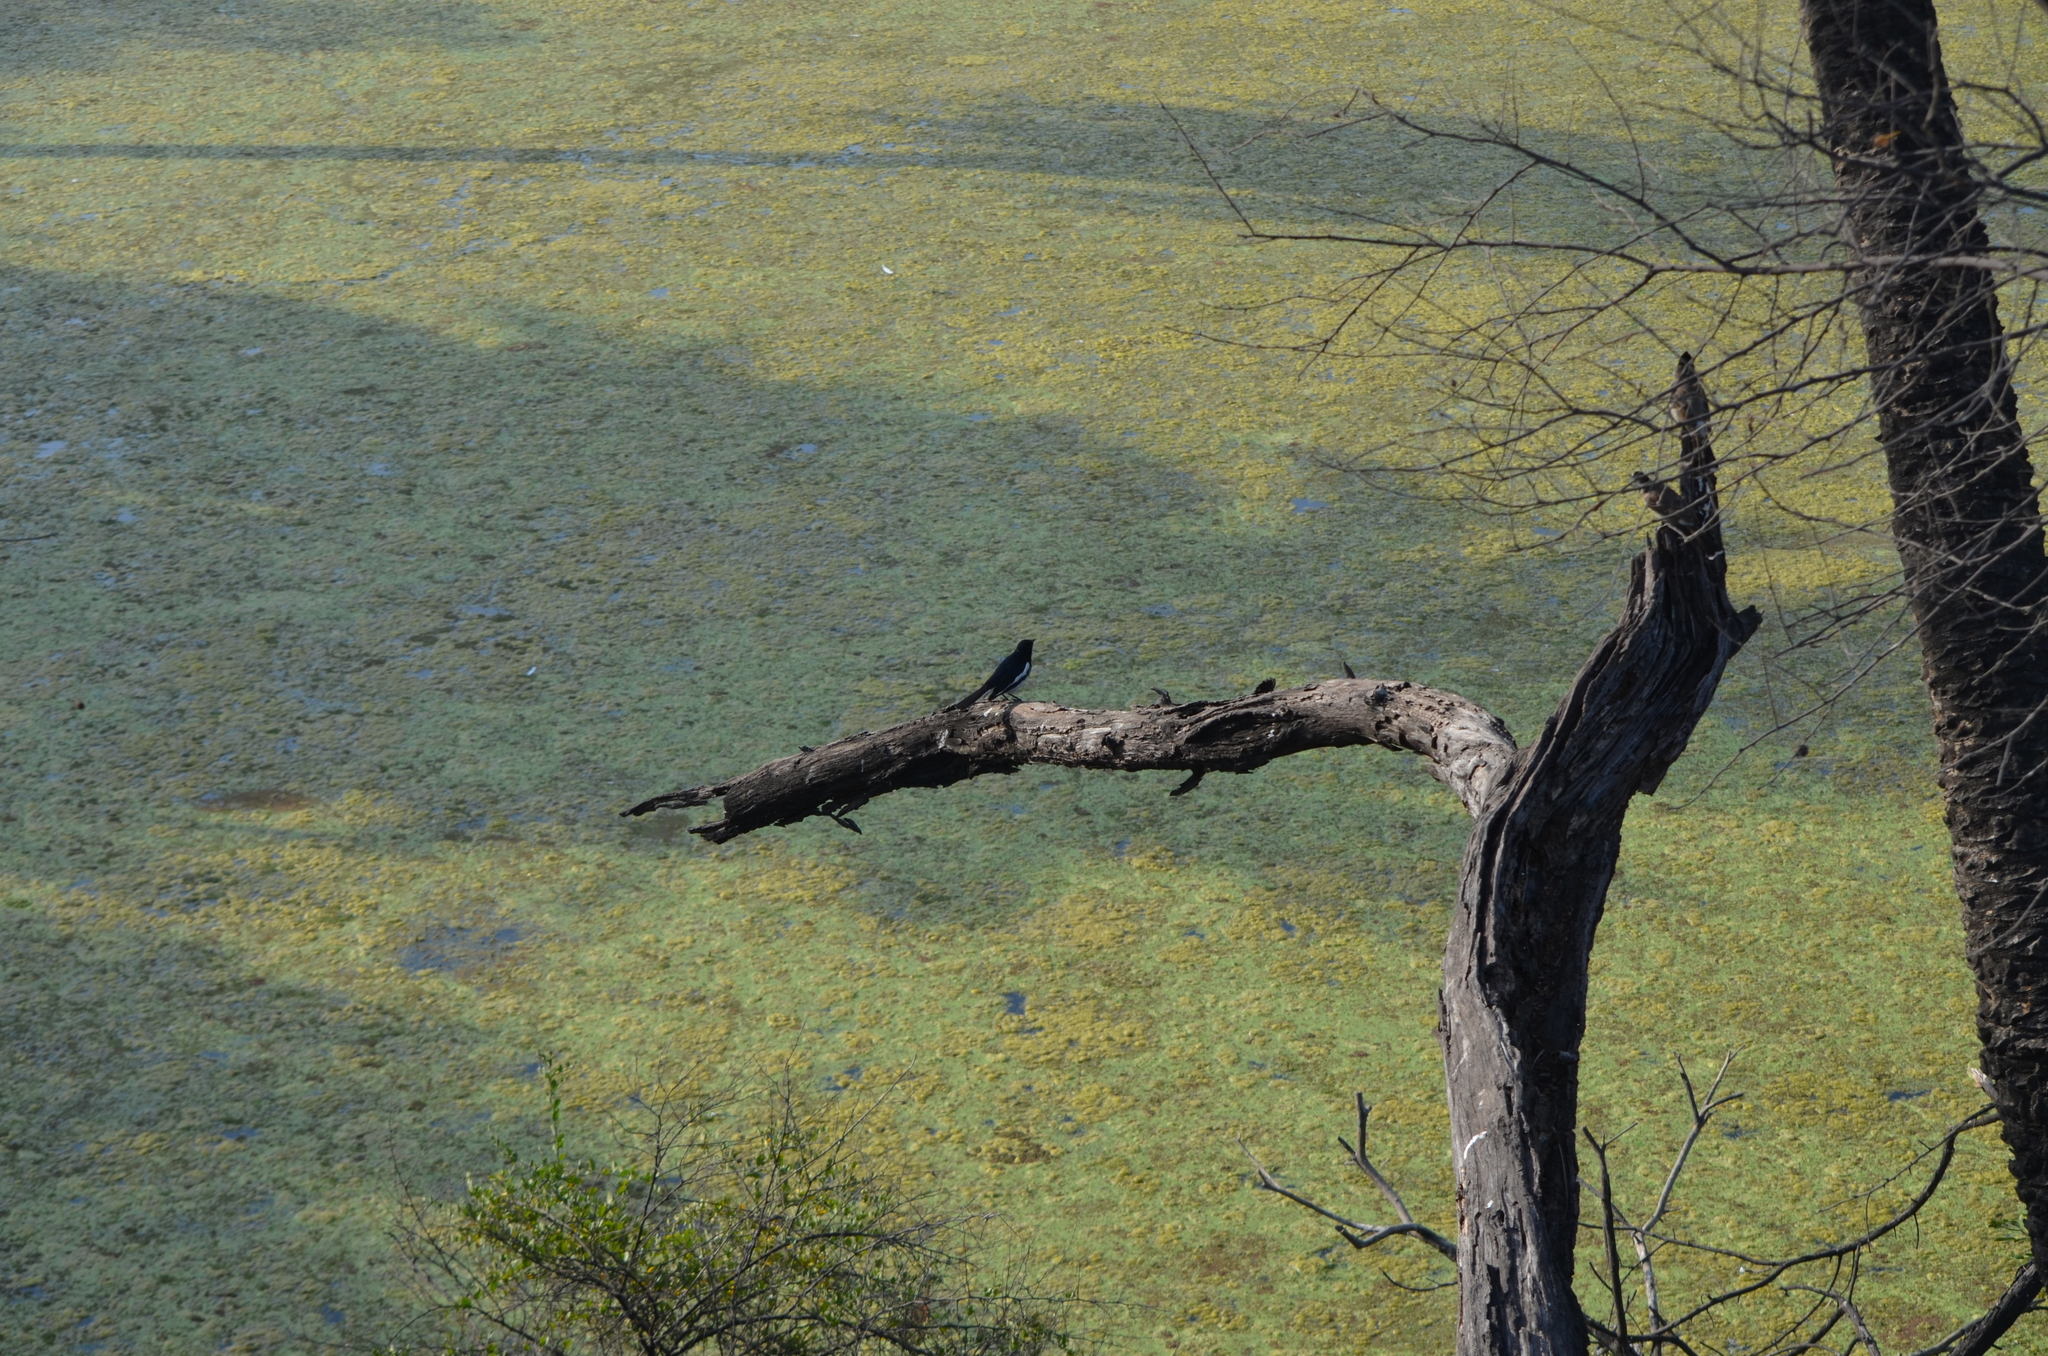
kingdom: Animalia
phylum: Chordata
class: Aves
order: Passeriformes
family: Muscicapidae
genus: Copsychus
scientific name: Copsychus saularis
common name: Oriental magpie-robin
